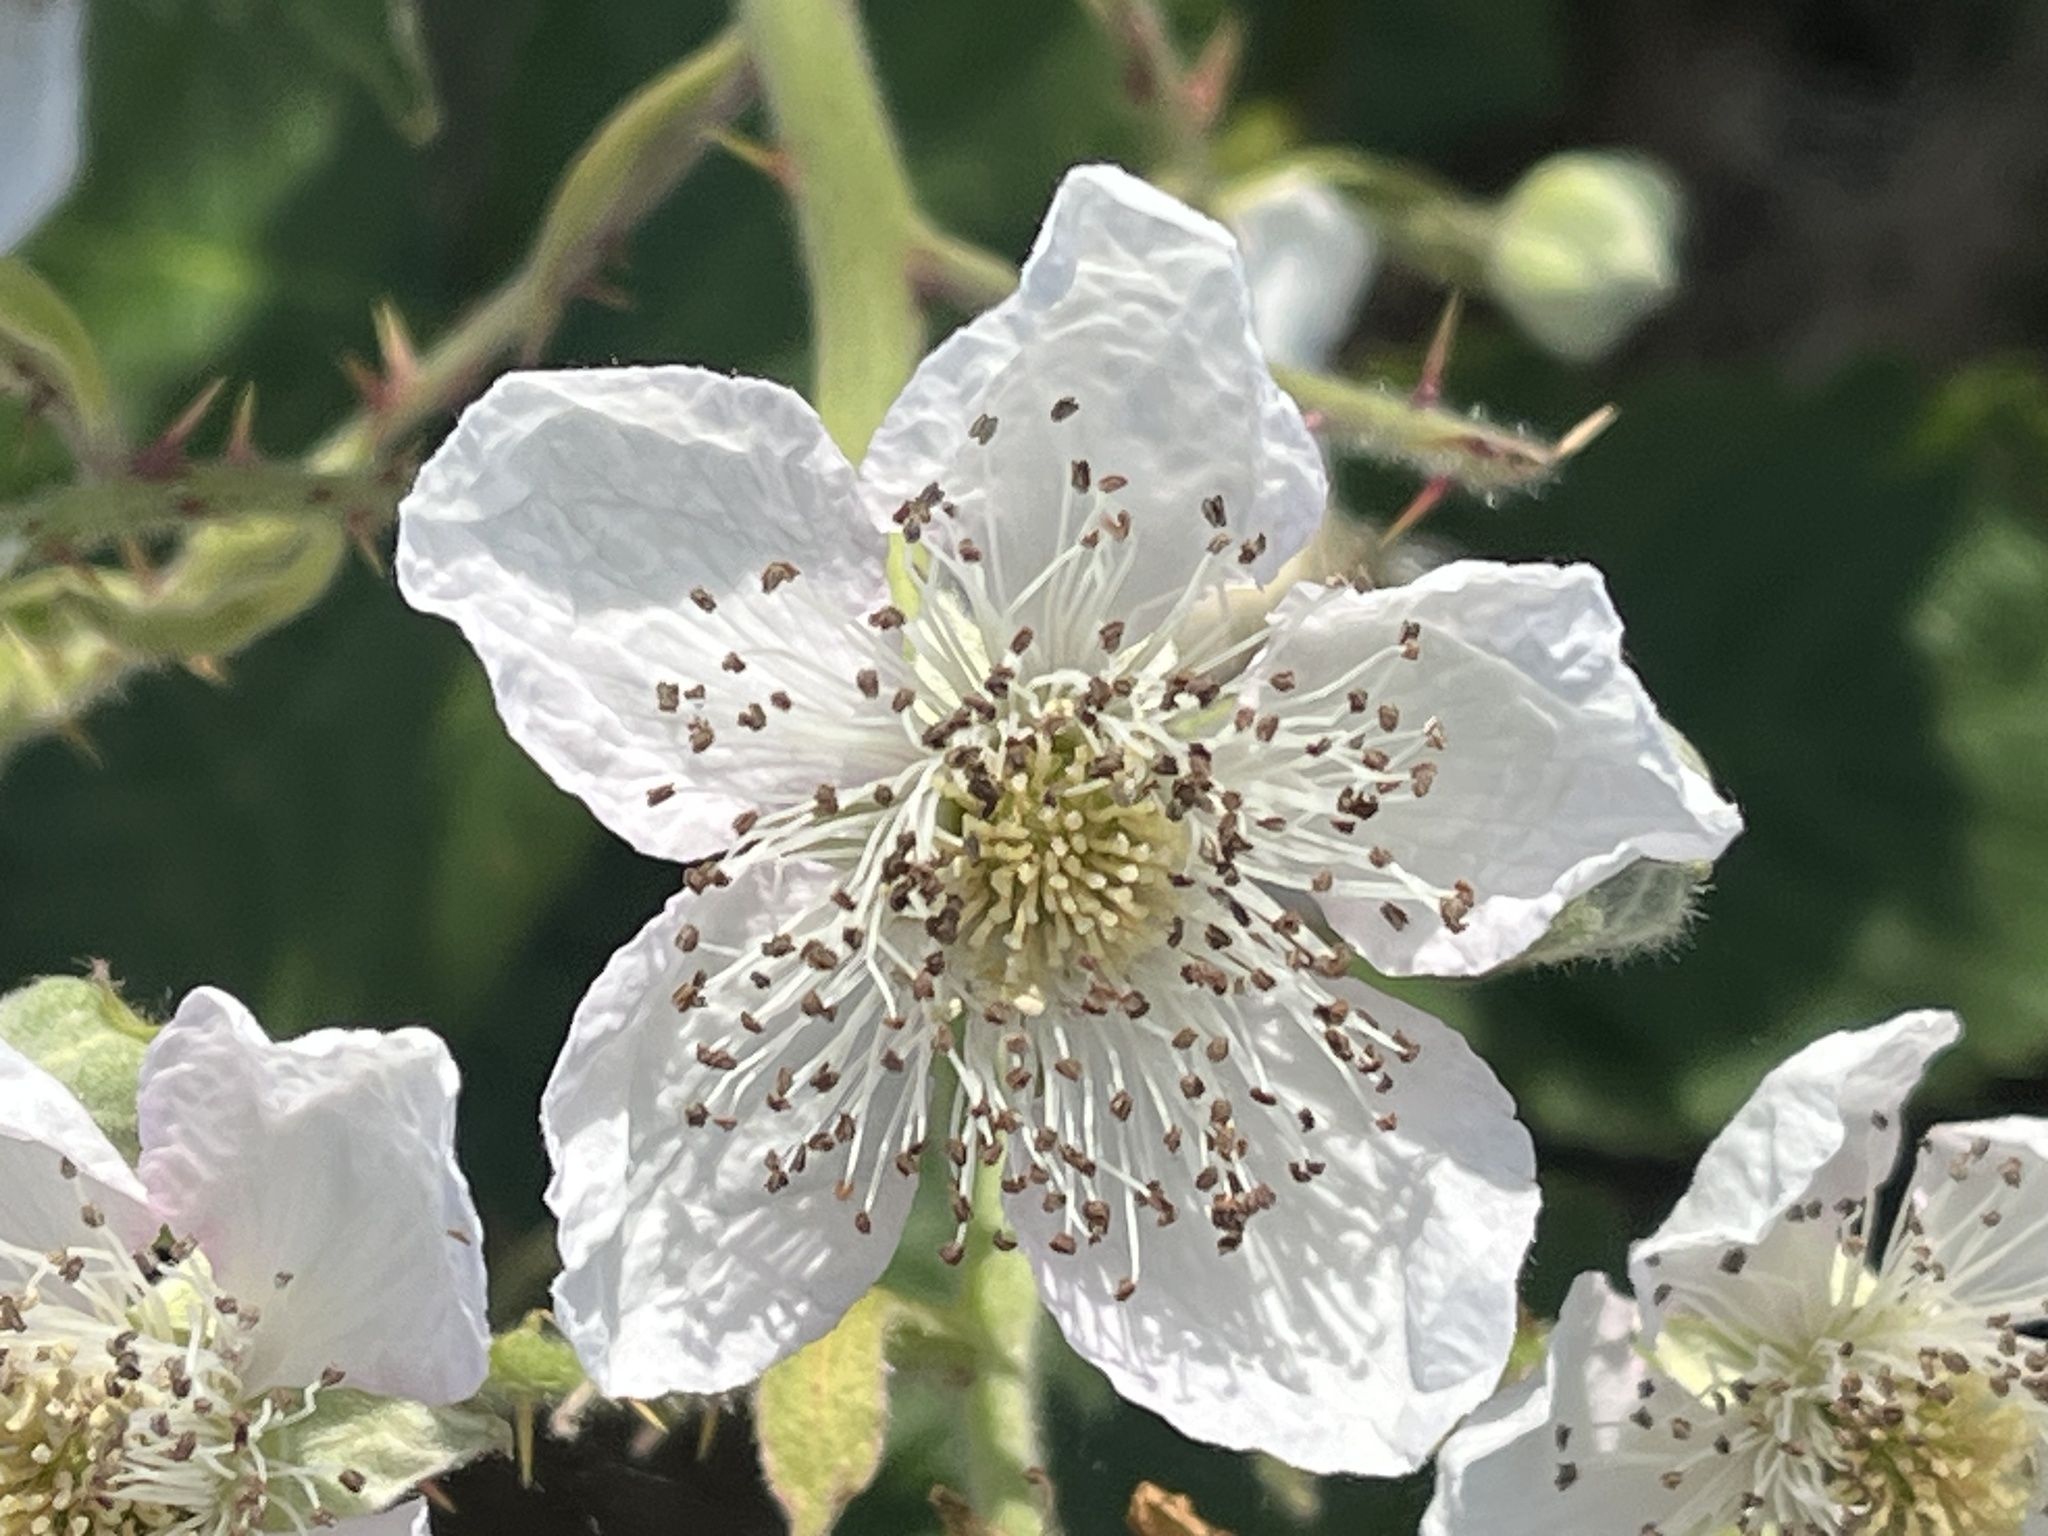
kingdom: Plantae
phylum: Tracheophyta
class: Magnoliopsida
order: Rosales
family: Rosaceae
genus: Rubus
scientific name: Rubus armeniacus
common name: Himalayan blackberry
